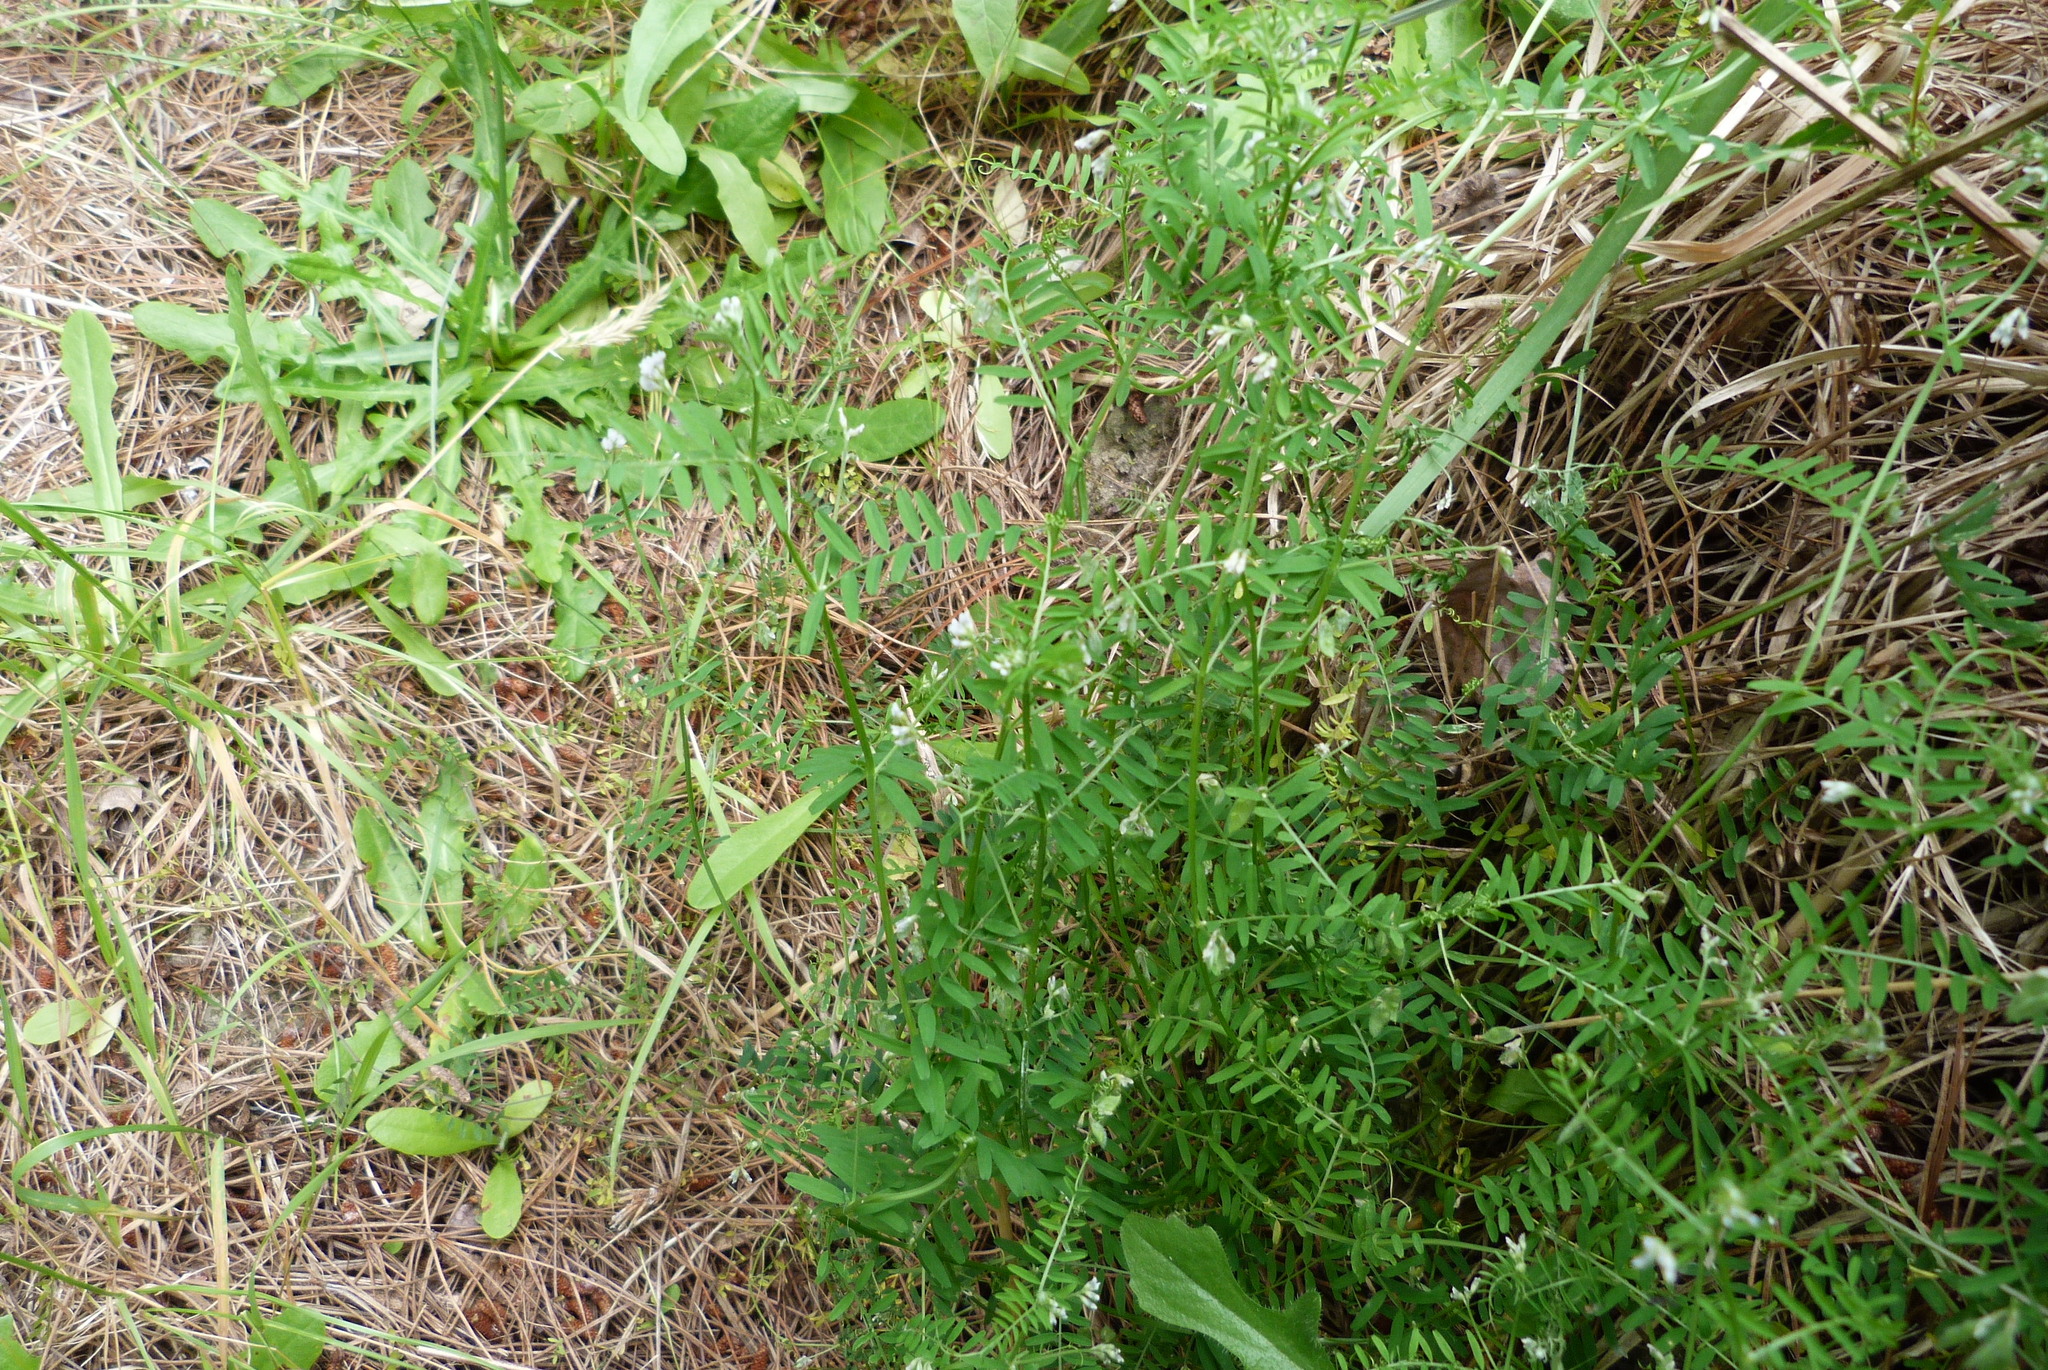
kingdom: Plantae
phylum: Tracheophyta
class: Magnoliopsida
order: Fabales
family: Fabaceae
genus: Vicia
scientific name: Vicia hirsuta
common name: Tiny vetch
